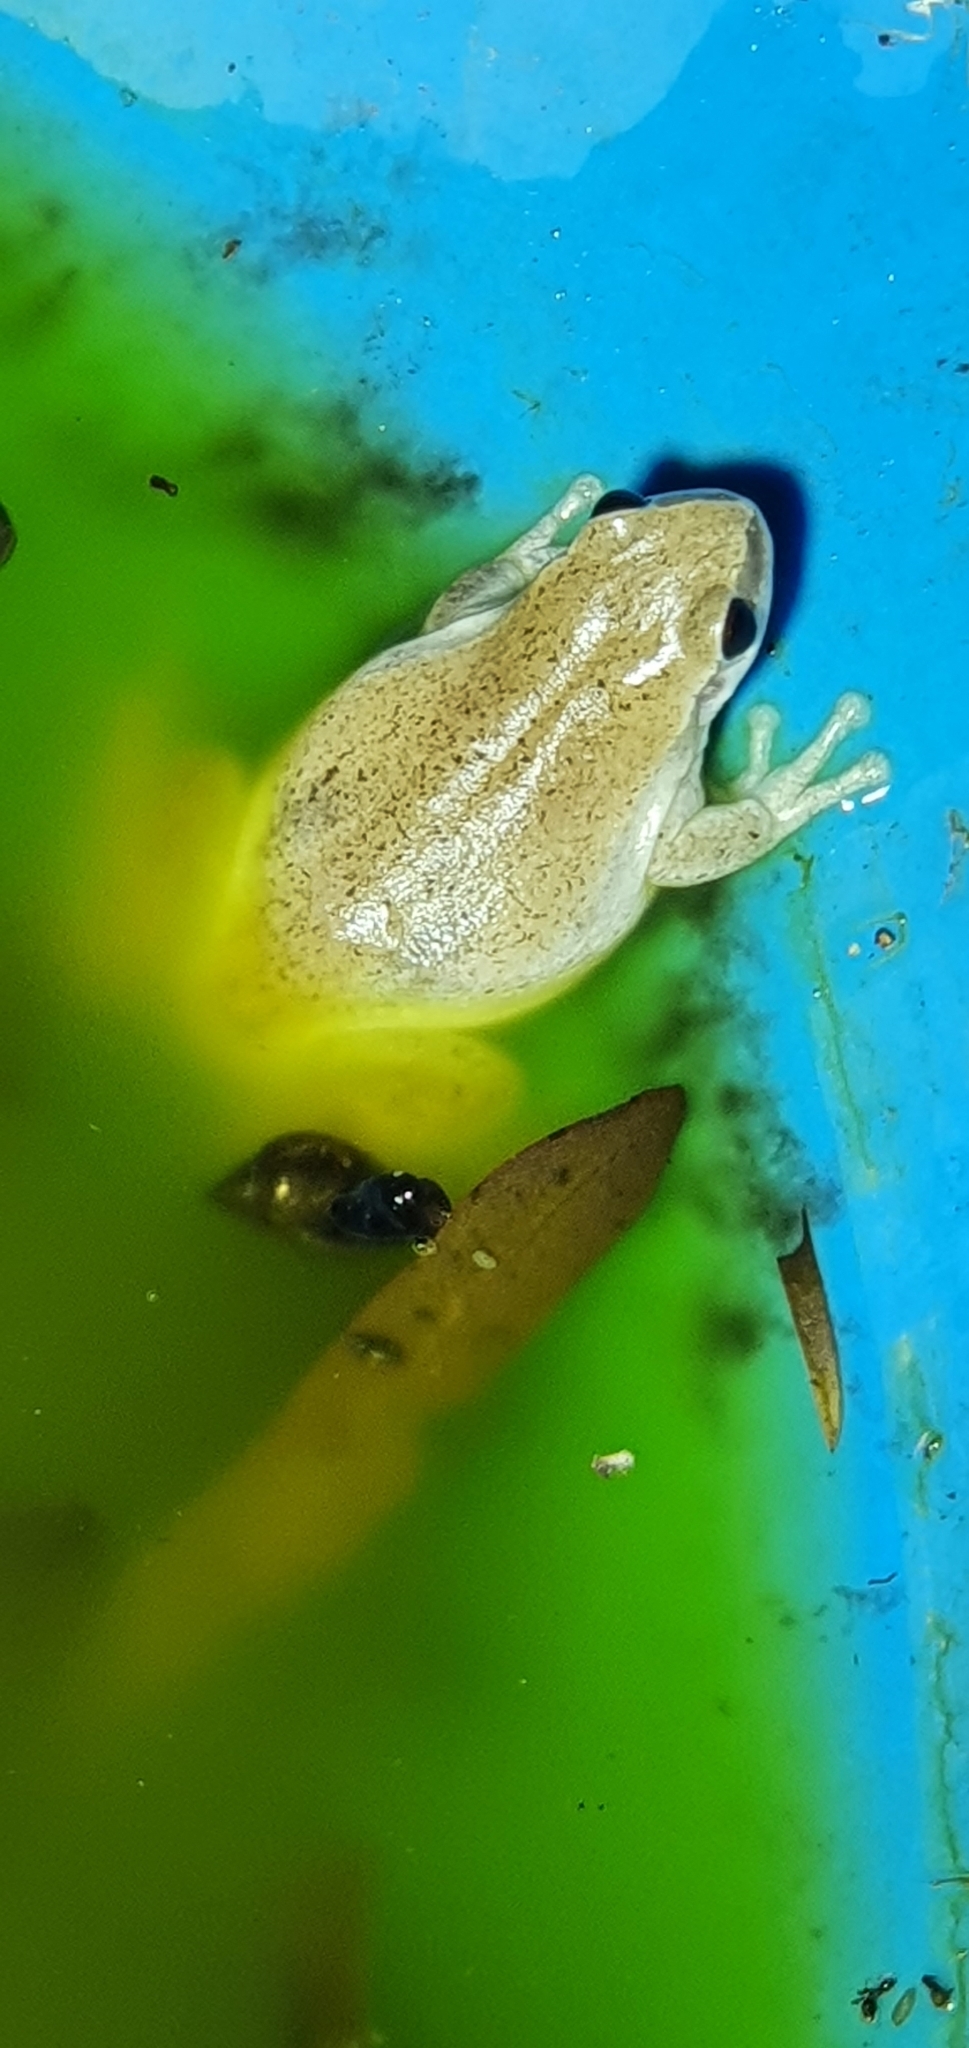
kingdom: Animalia
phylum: Chordata
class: Amphibia
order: Anura
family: Pelodryadidae
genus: Litoria
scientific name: Litoria rubella
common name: Desert tree frog
